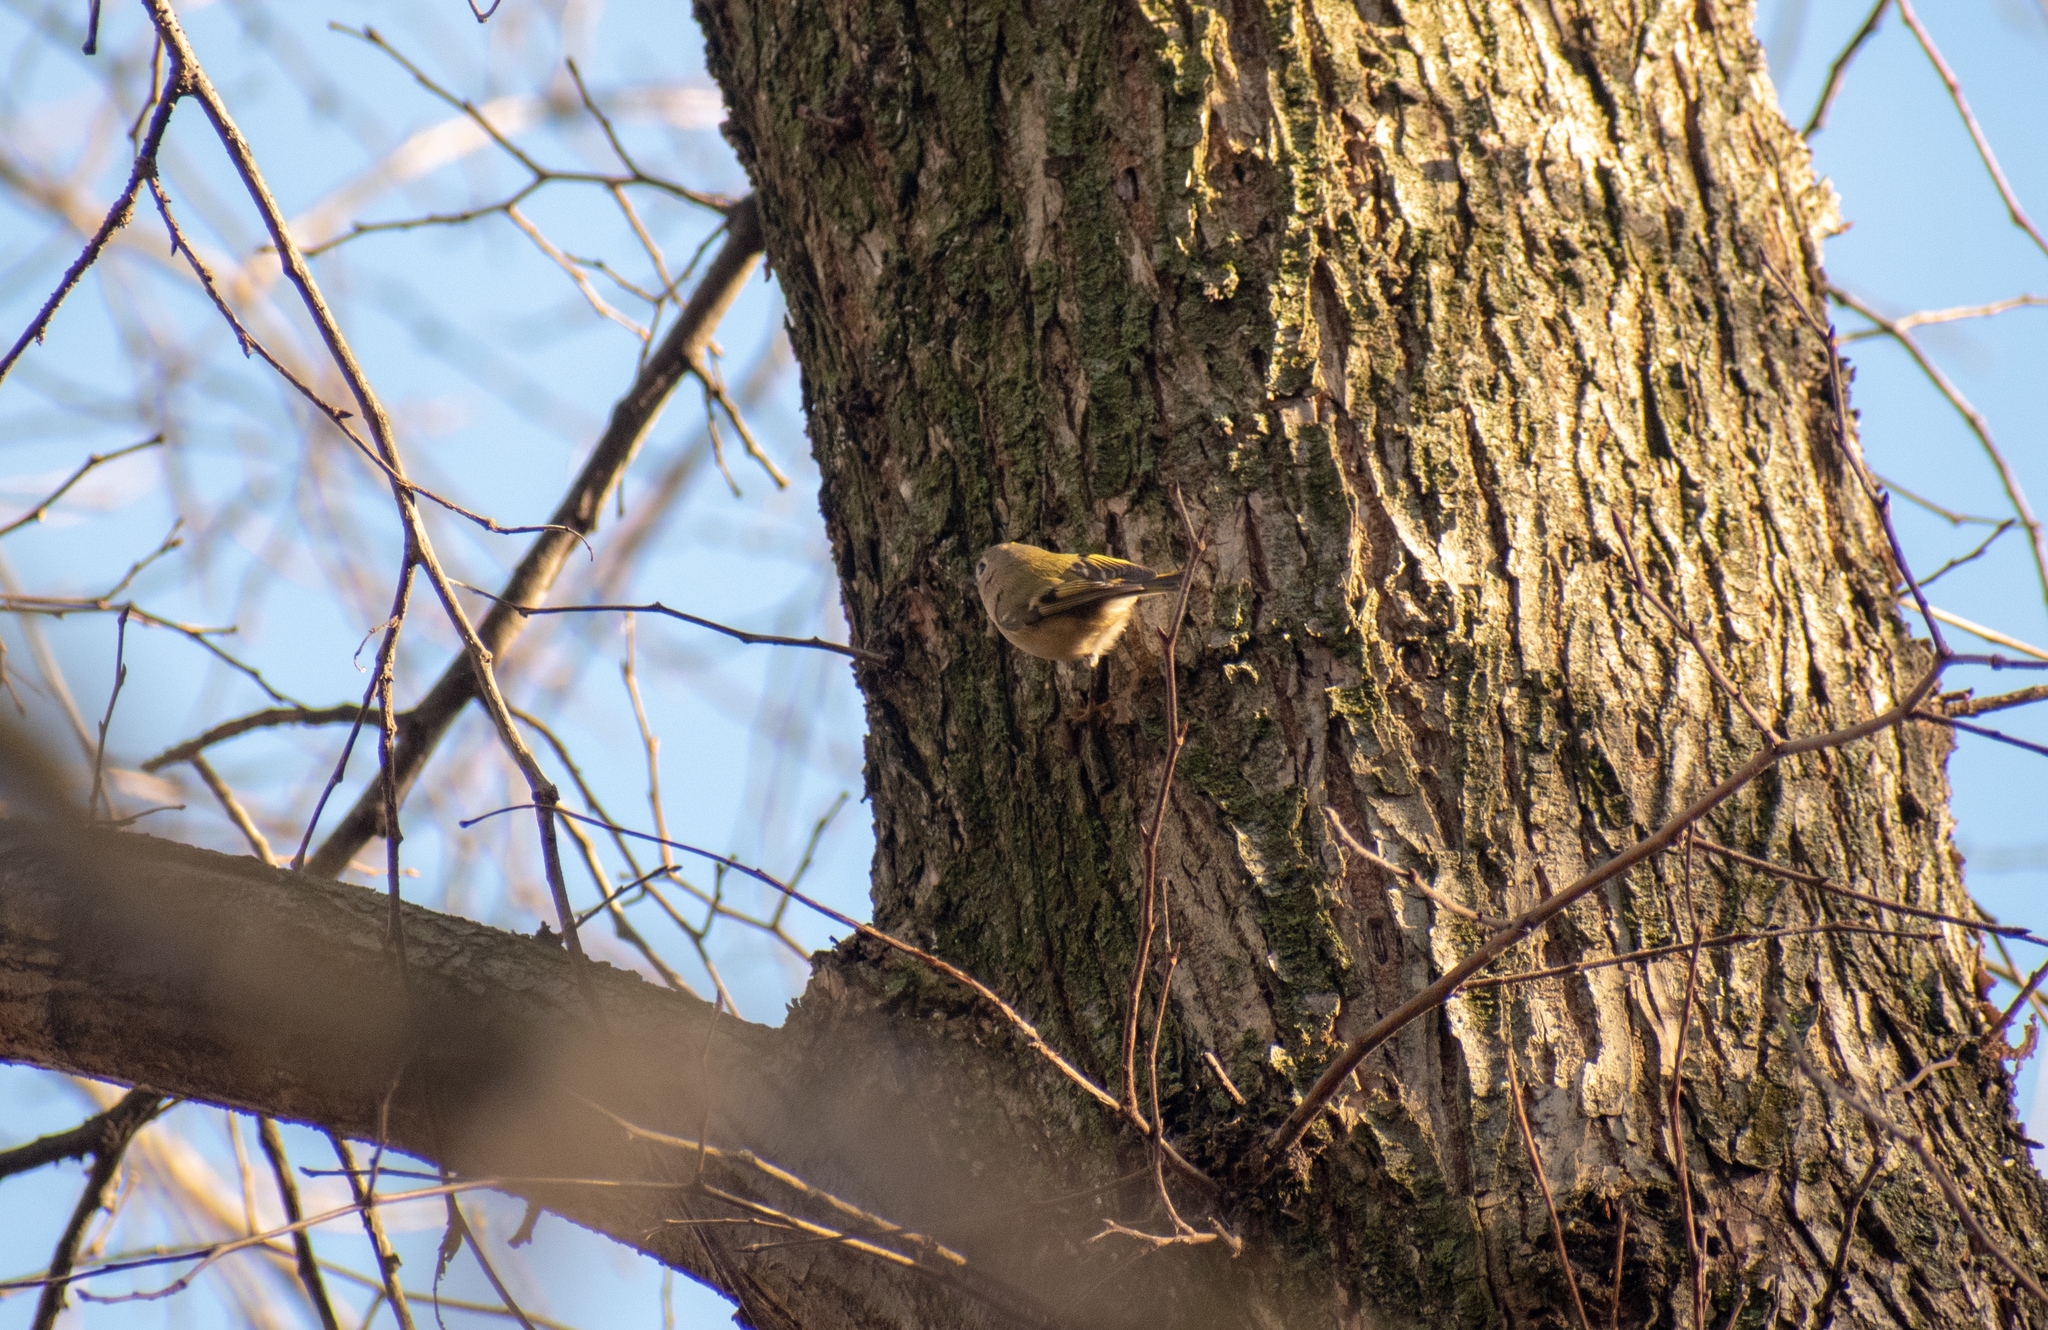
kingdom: Animalia
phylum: Chordata
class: Aves
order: Passeriformes
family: Regulidae
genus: Regulus
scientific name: Regulus regulus
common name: Goldcrest
